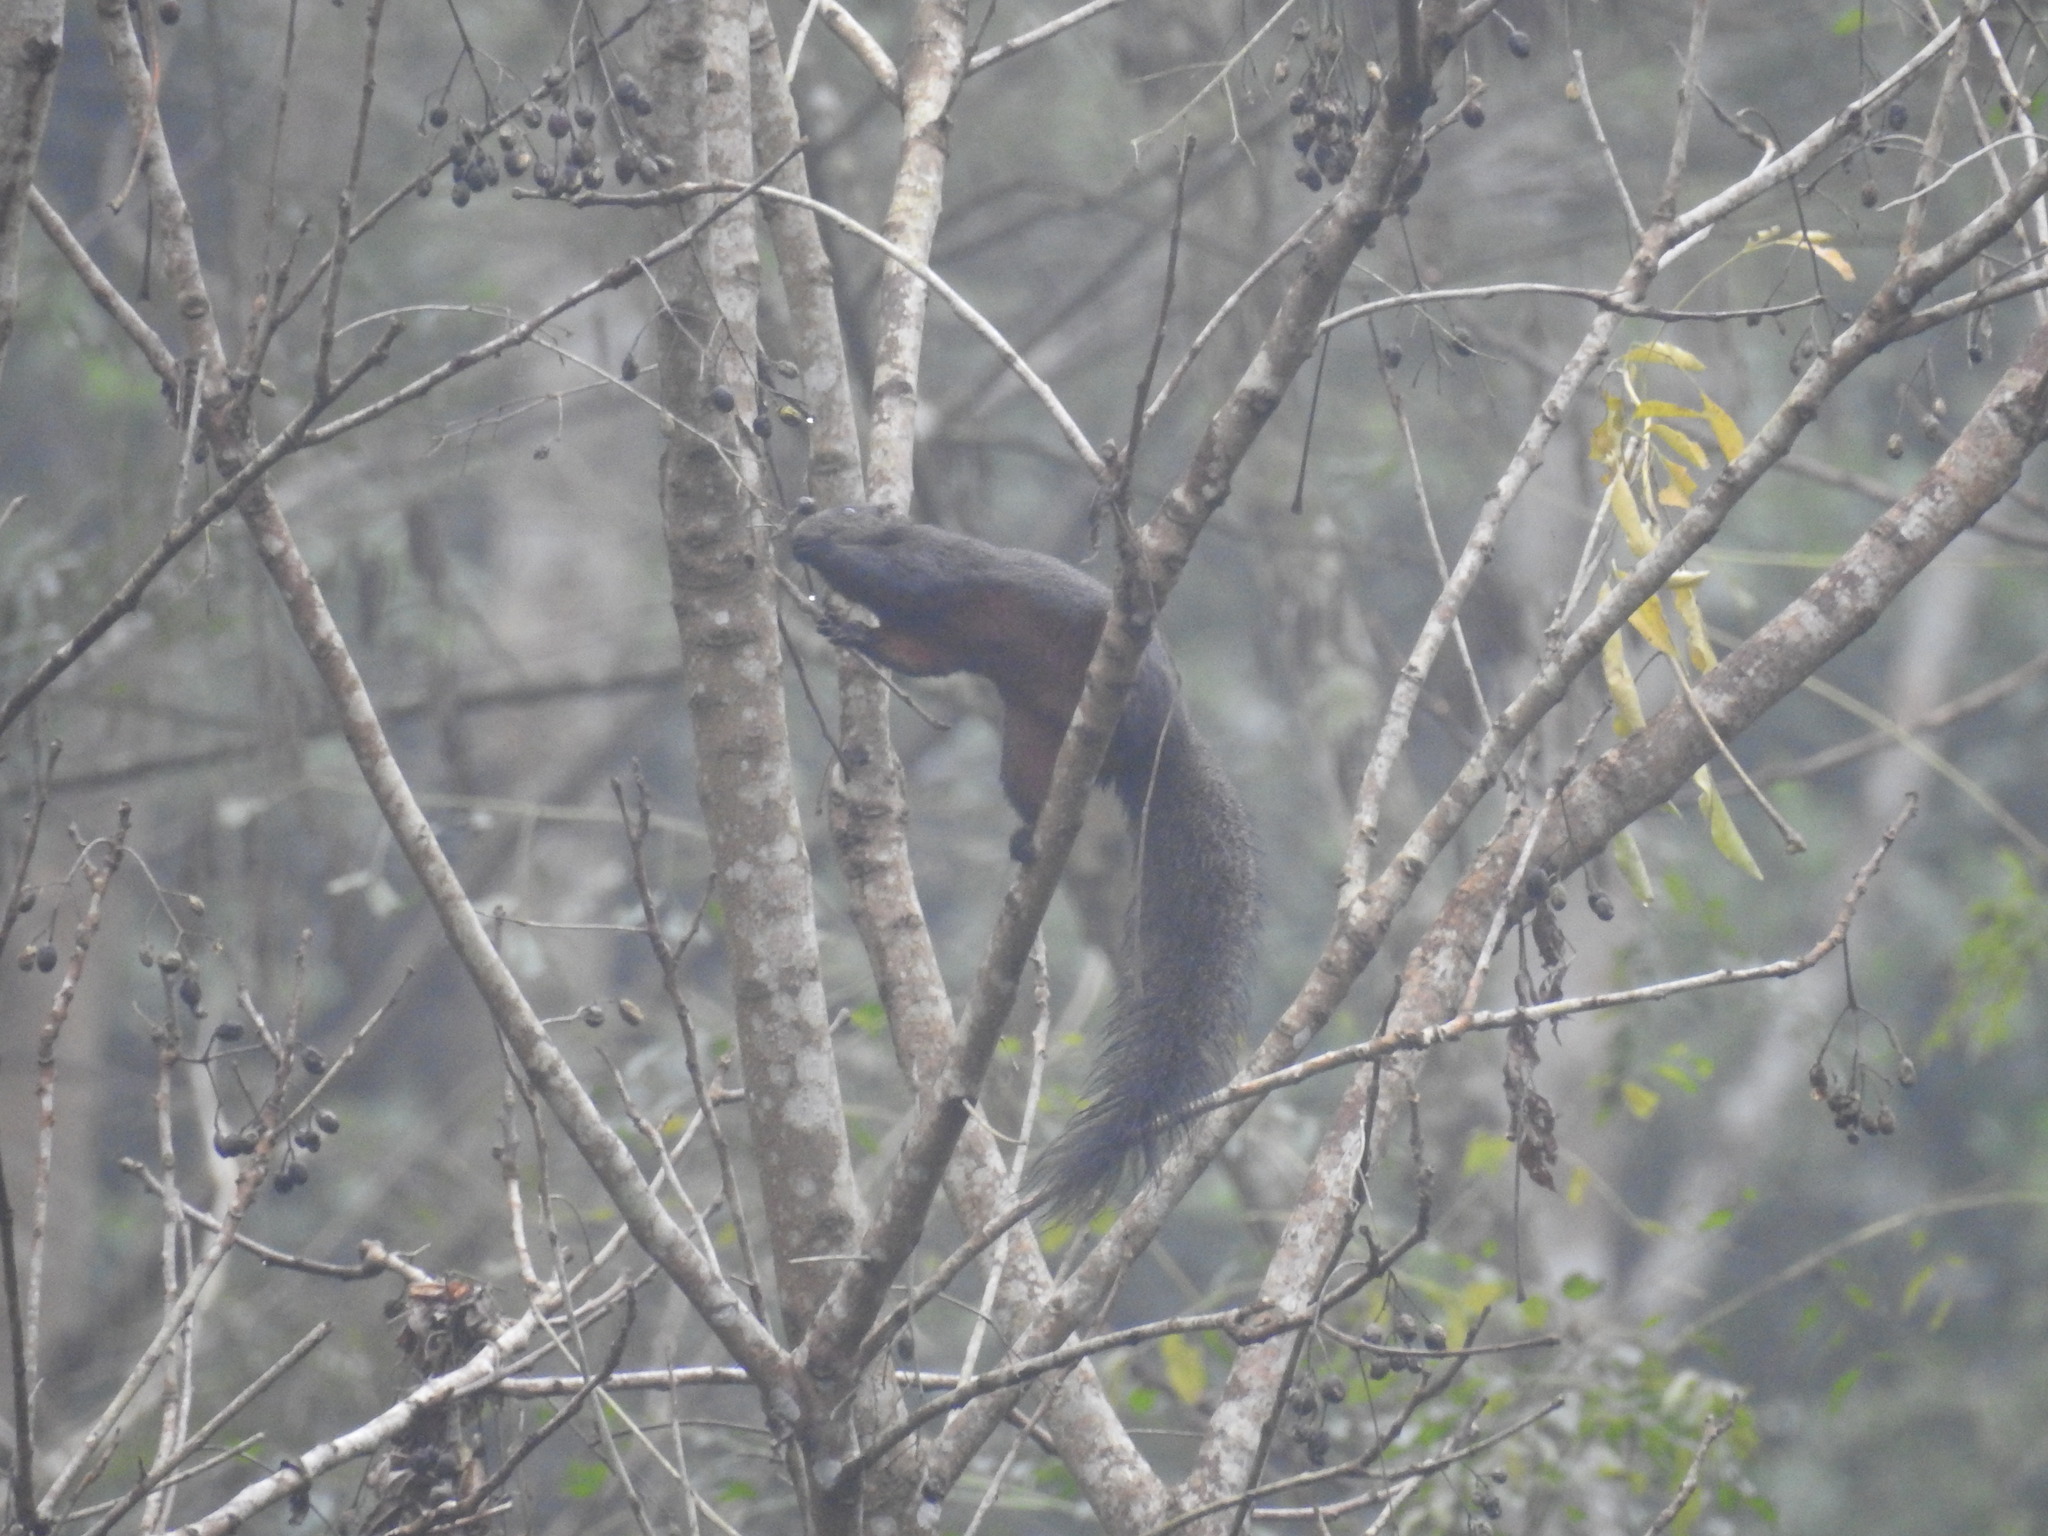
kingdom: Animalia
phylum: Chordata
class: Mammalia
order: Rodentia
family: Sciuridae
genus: Callosciurus
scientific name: Callosciurus erythraeus
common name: Pallas's squirrel
